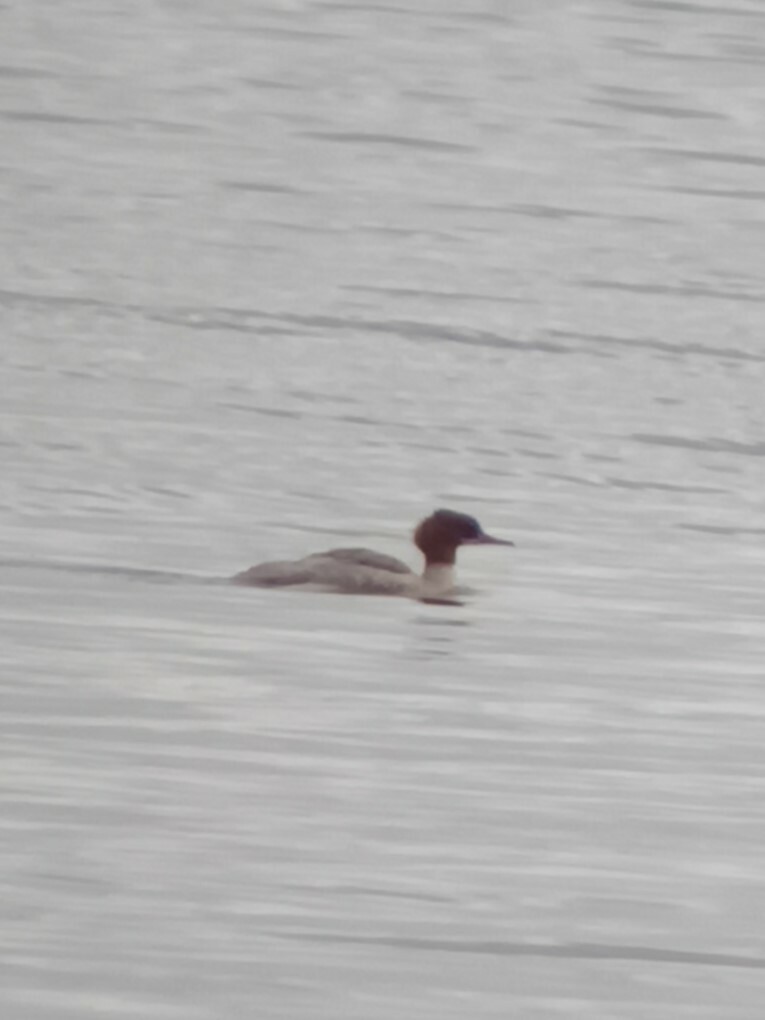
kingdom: Animalia
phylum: Chordata
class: Aves
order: Anseriformes
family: Anatidae
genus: Mergus
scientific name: Mergus merganser
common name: Common merganser
